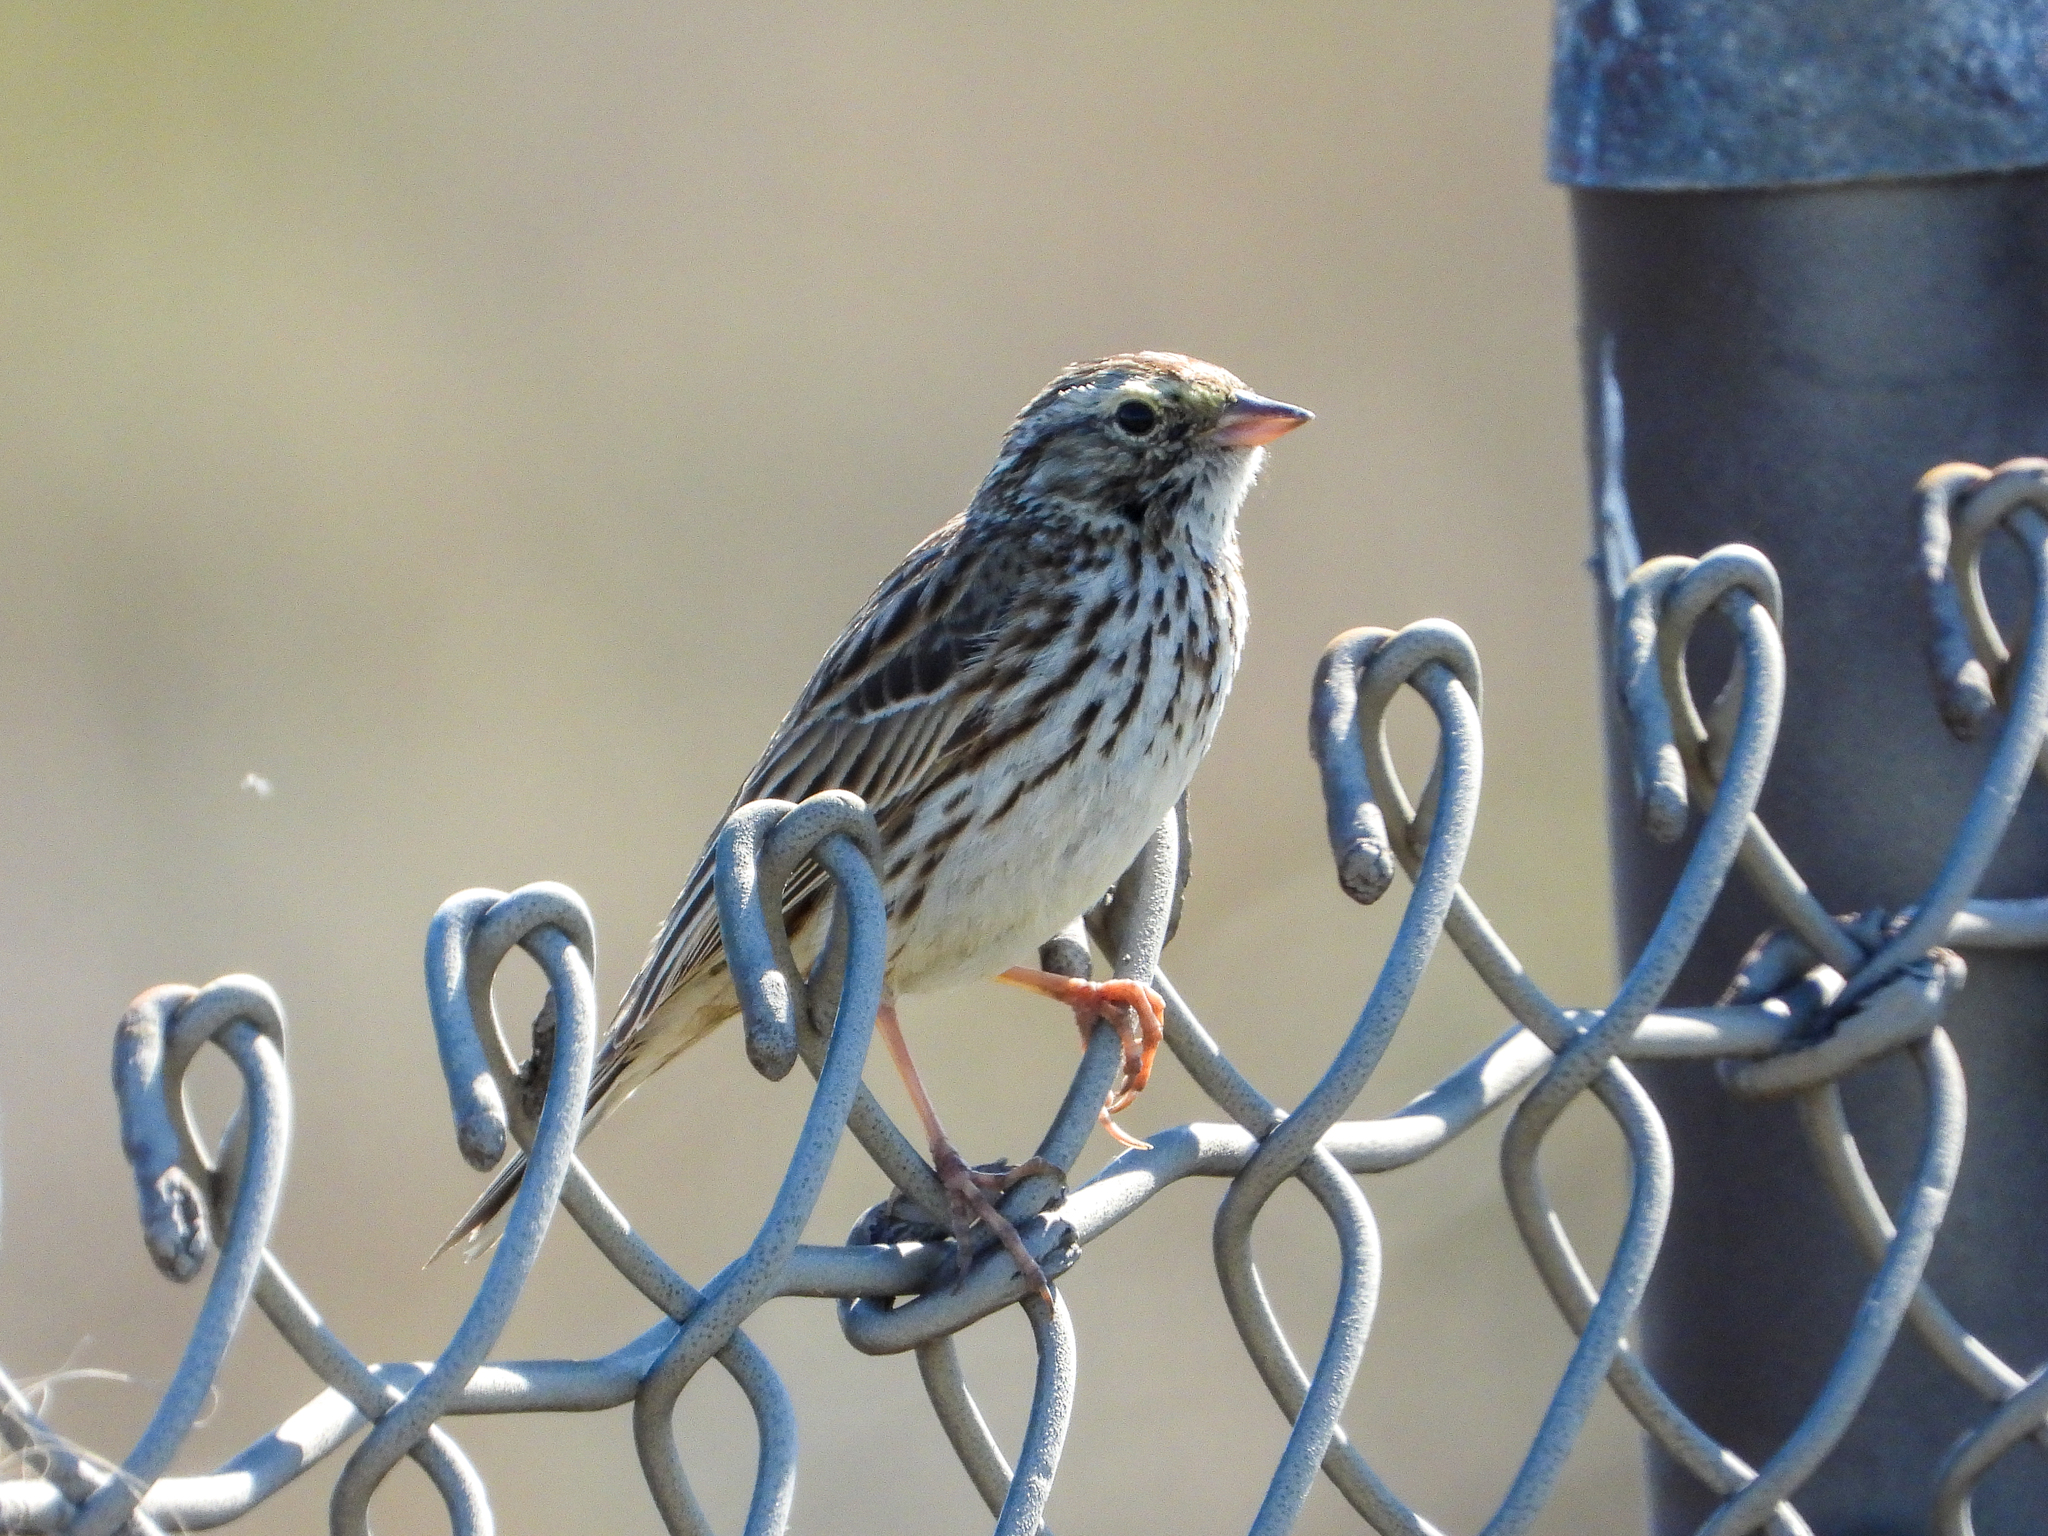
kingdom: Animalia
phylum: Chordata
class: Aves
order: Passeriformes
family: Passerellidae
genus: Passerculus
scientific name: Passerculus sandwichensis
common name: Savannah sparrow
